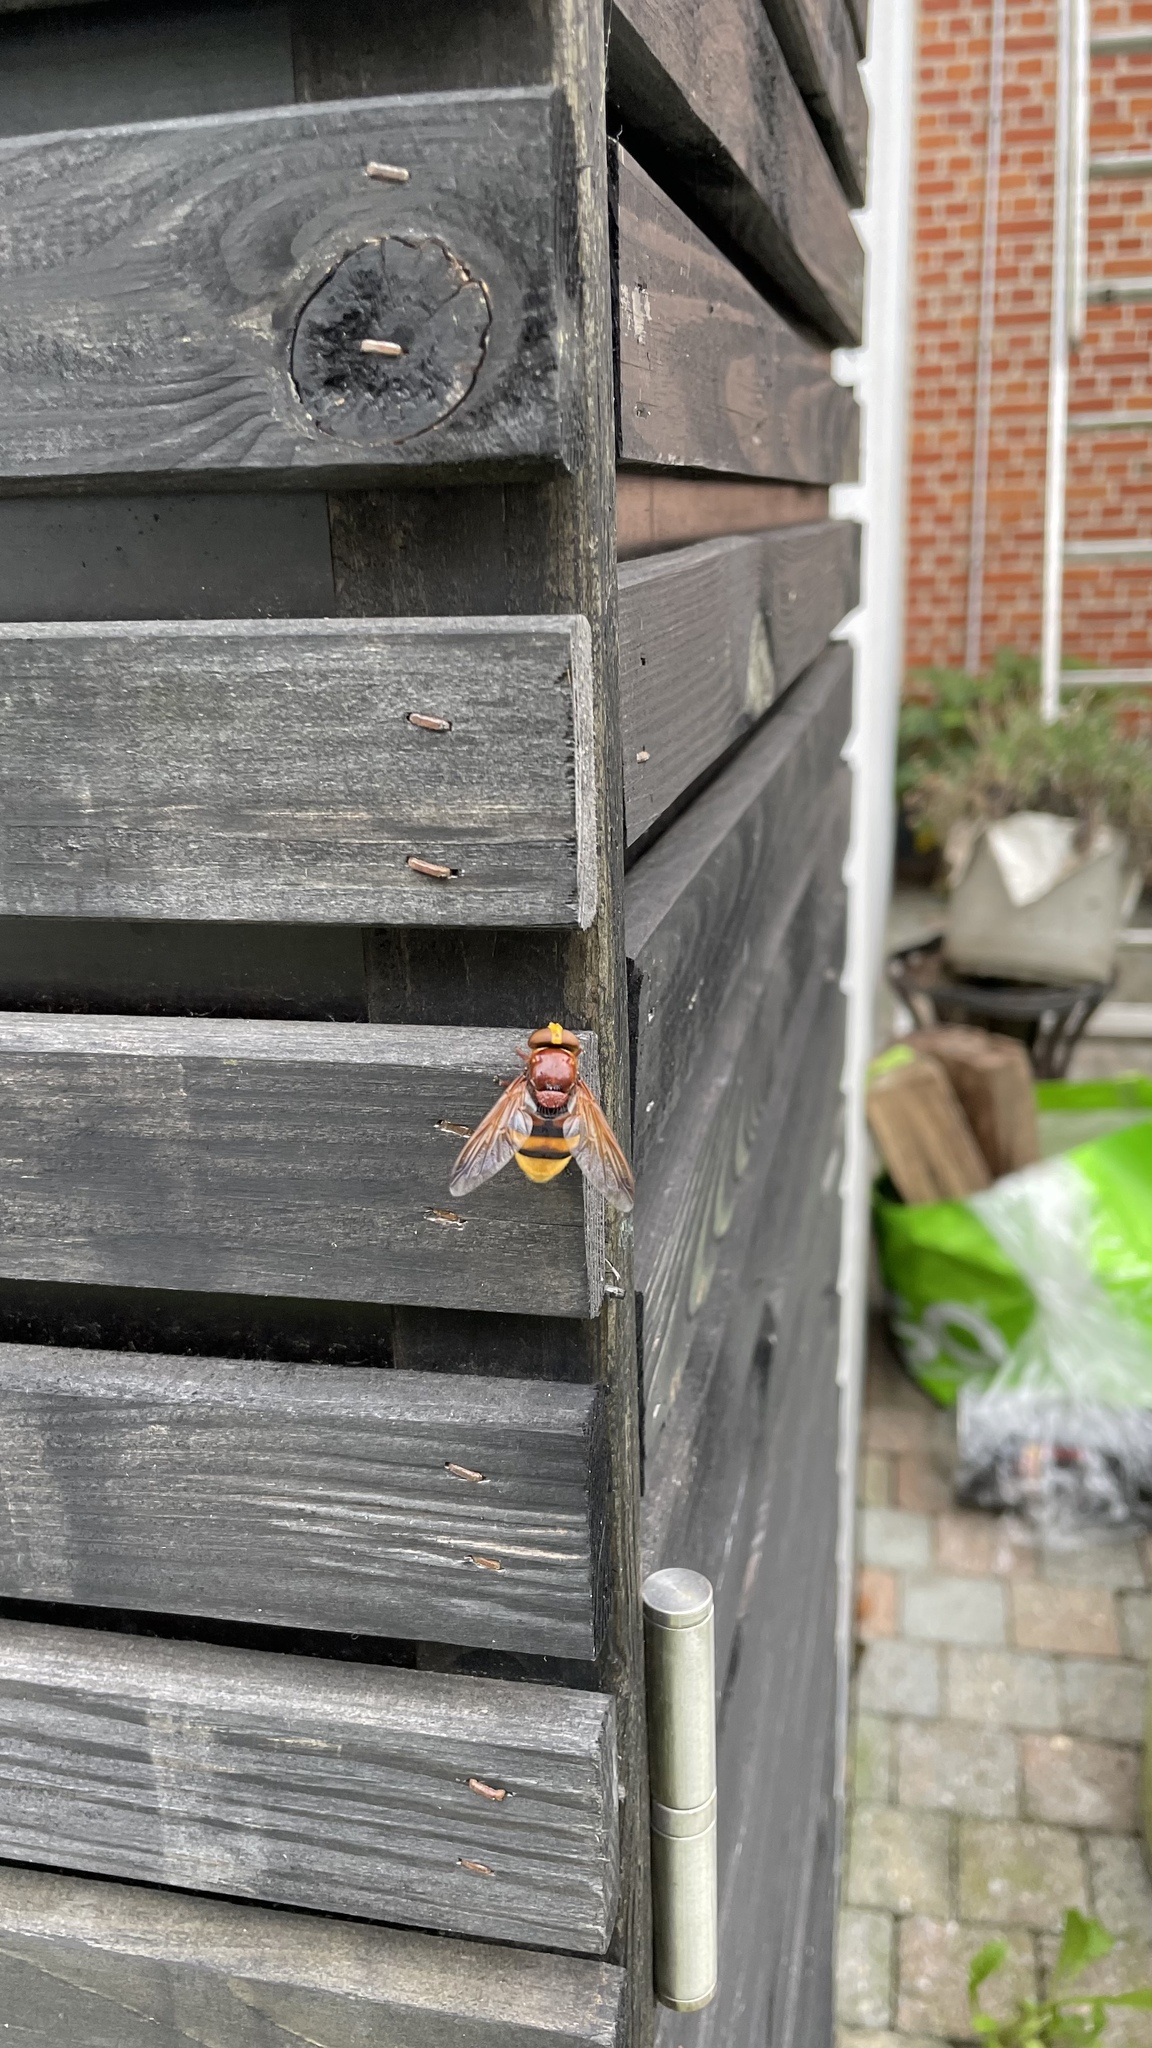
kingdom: Animalia
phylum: Arthropoda
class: Insecta
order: Diptera
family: Syrphidae
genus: Volucella
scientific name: Volucella zonaria
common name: Hornet hoverfly
